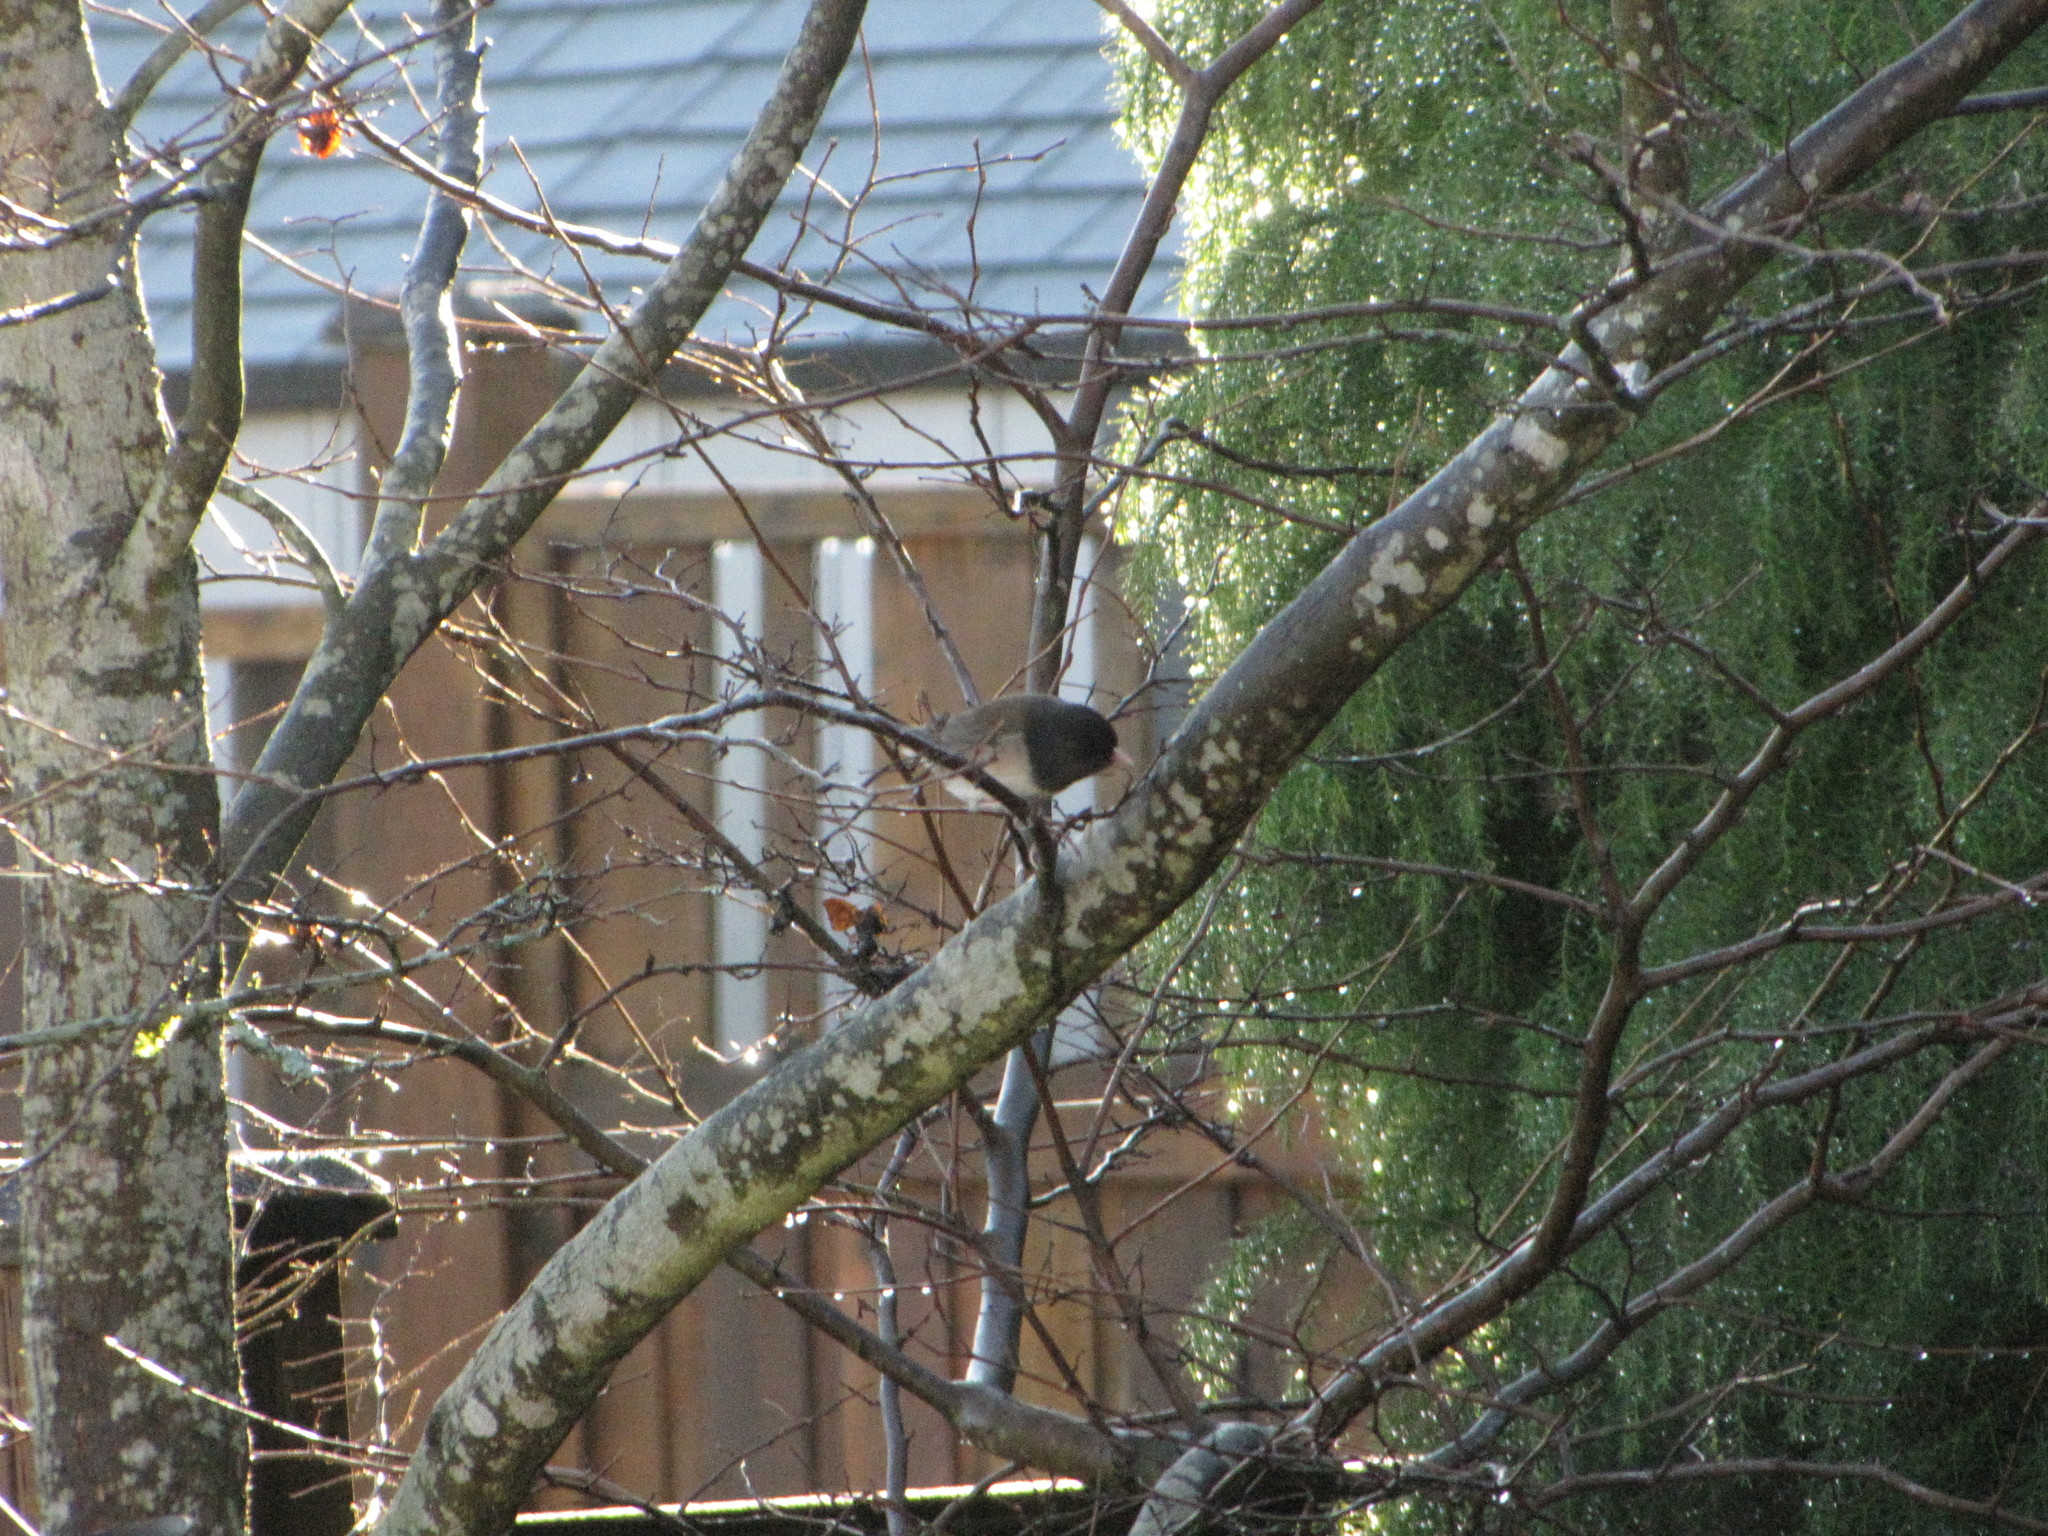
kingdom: Animalia
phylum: Chordata
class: Aves
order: Passeriformes
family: Passerellidae
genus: Junco
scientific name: Junco hyemalis
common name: Dark-eyed junco
